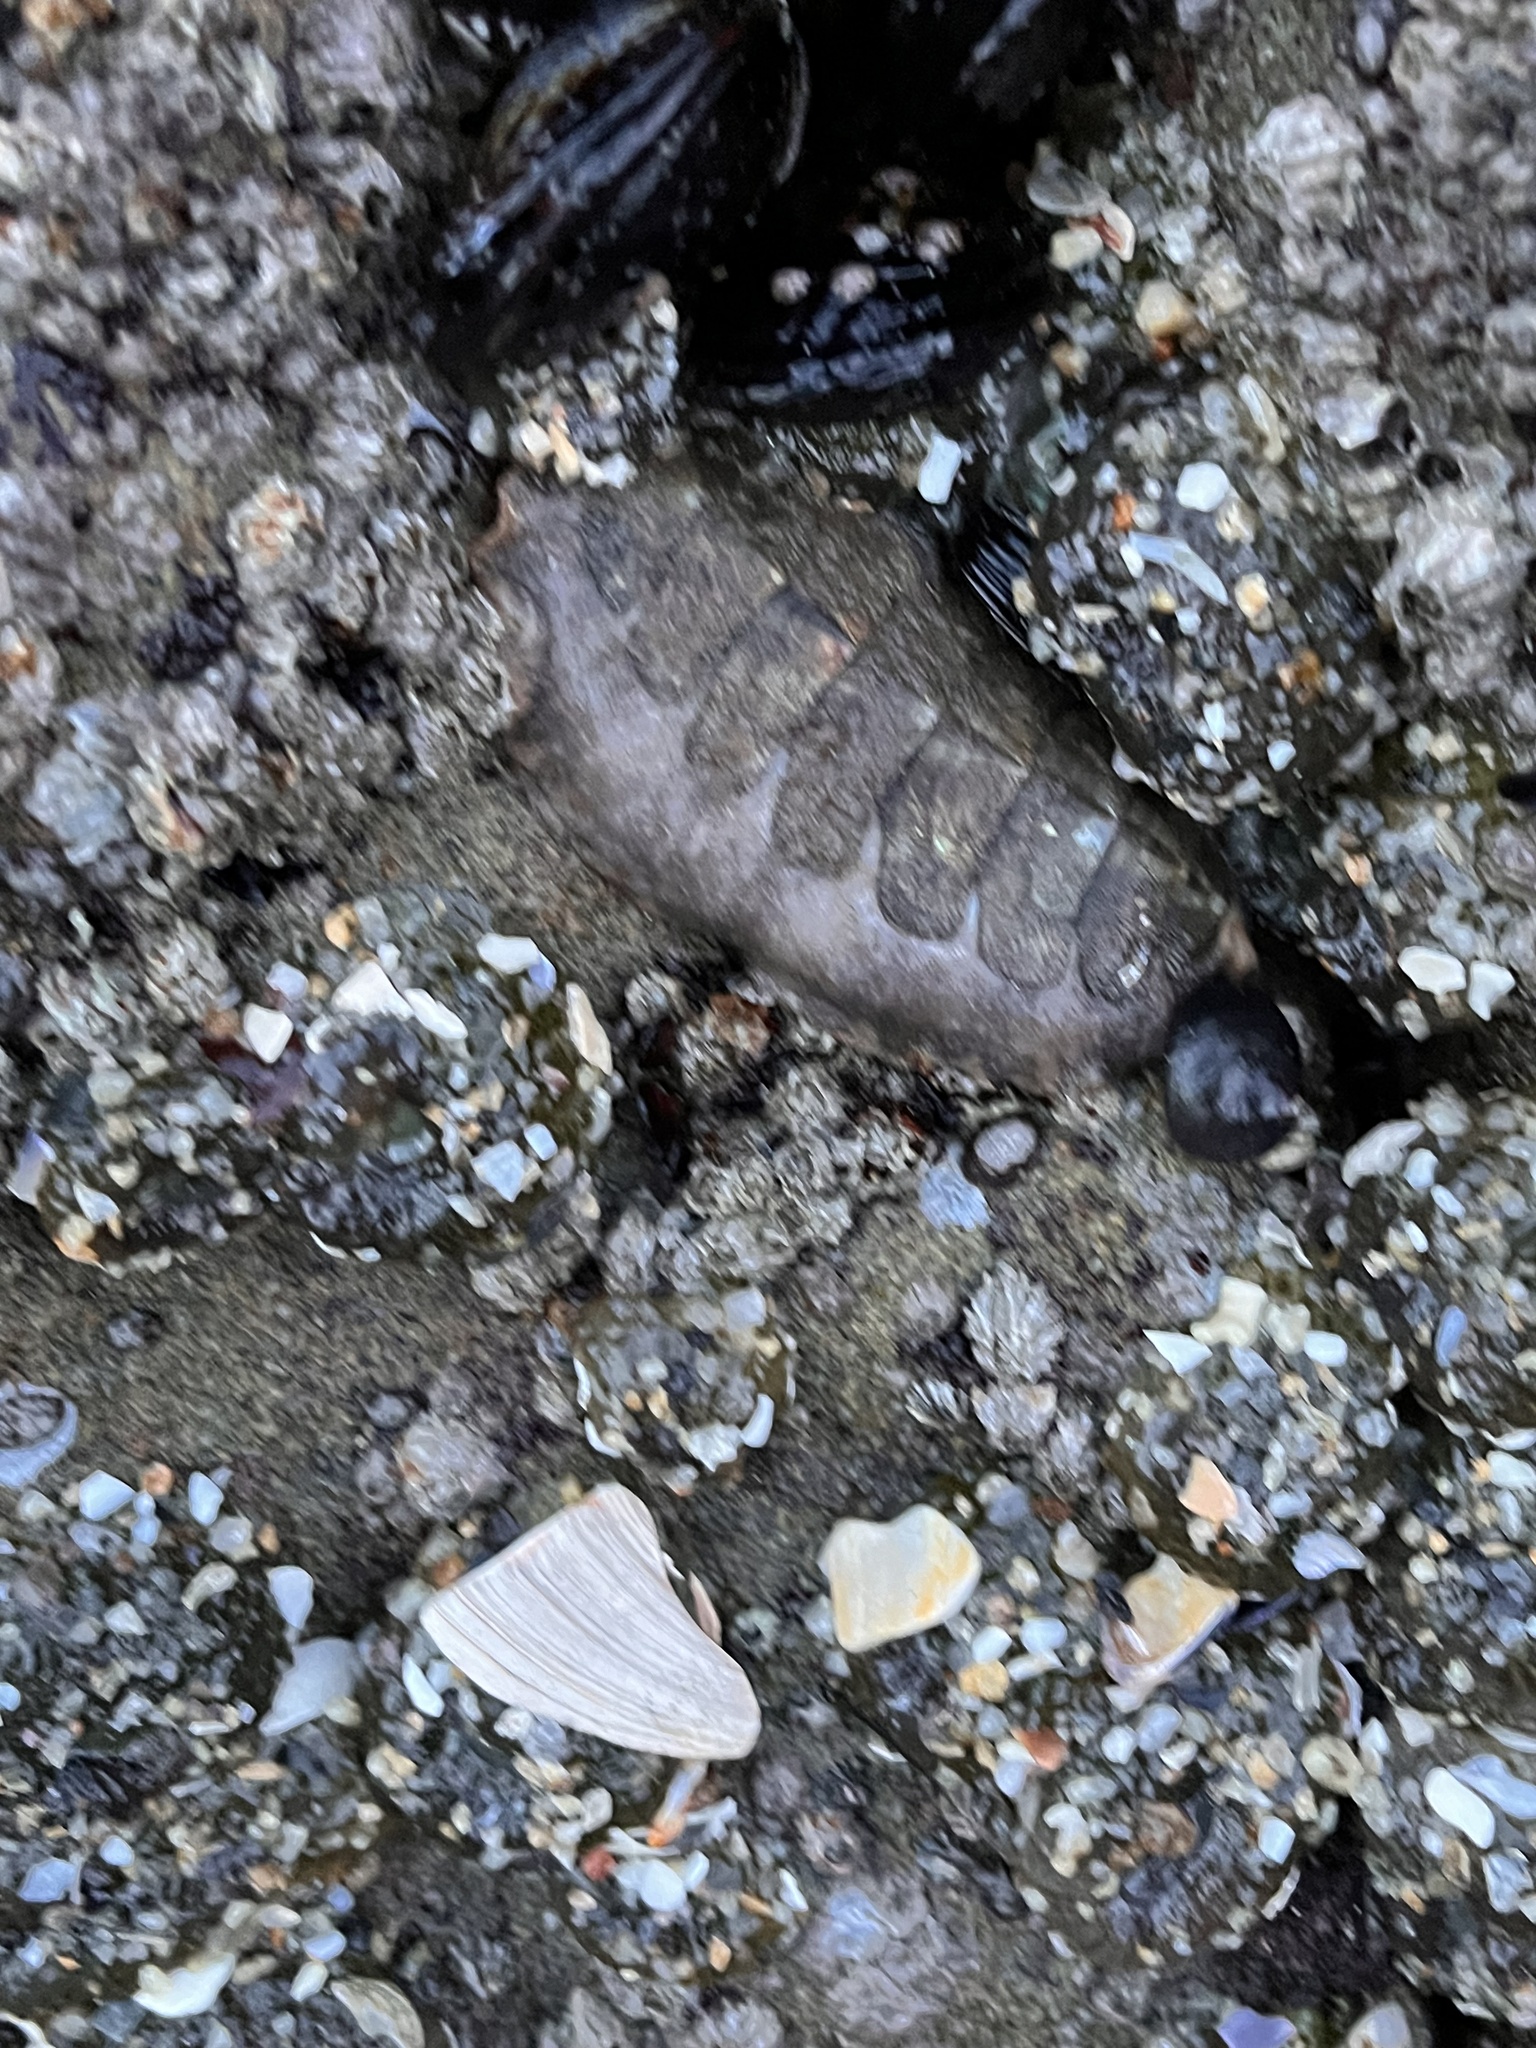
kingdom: Animalia
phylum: Mollusca
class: Polyplacophora
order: Chitonida
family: Mopaliidae
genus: Mopalia
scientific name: Mopalia hindsii
